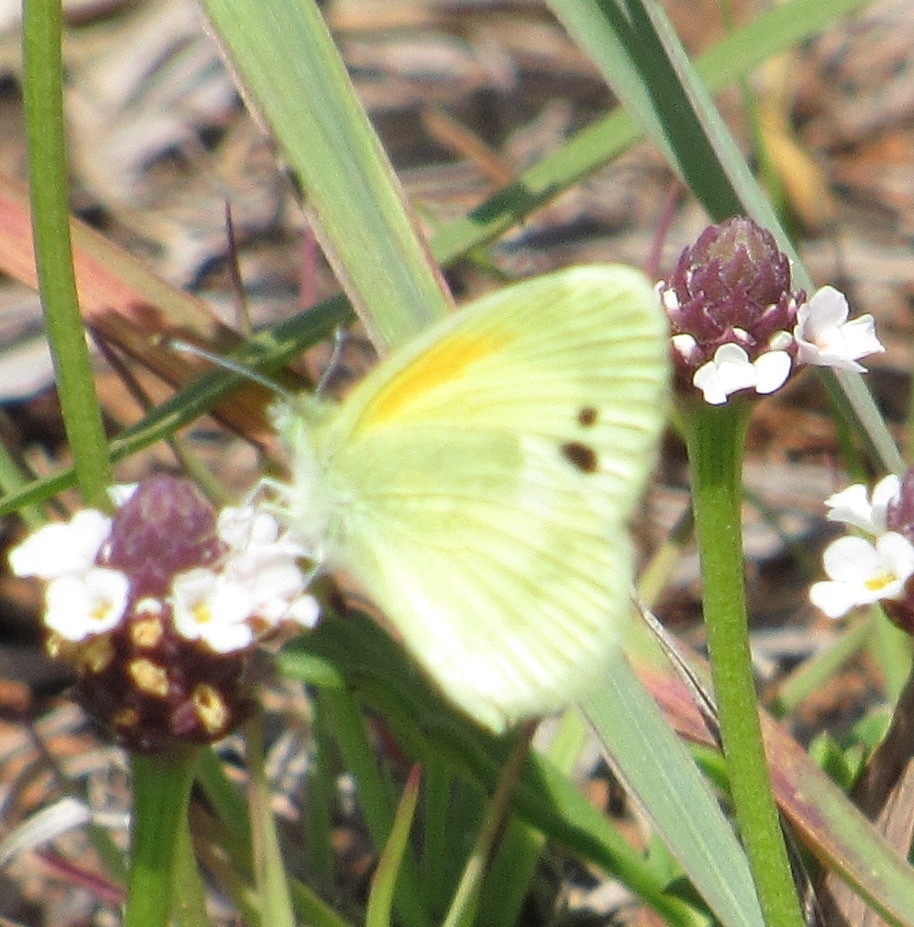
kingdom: Animalia
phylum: Arthropoda
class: Insecta
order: Lepidoptera
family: Pieridae
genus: Nathalis
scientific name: Nathalis iole
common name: Dainty sulphur
